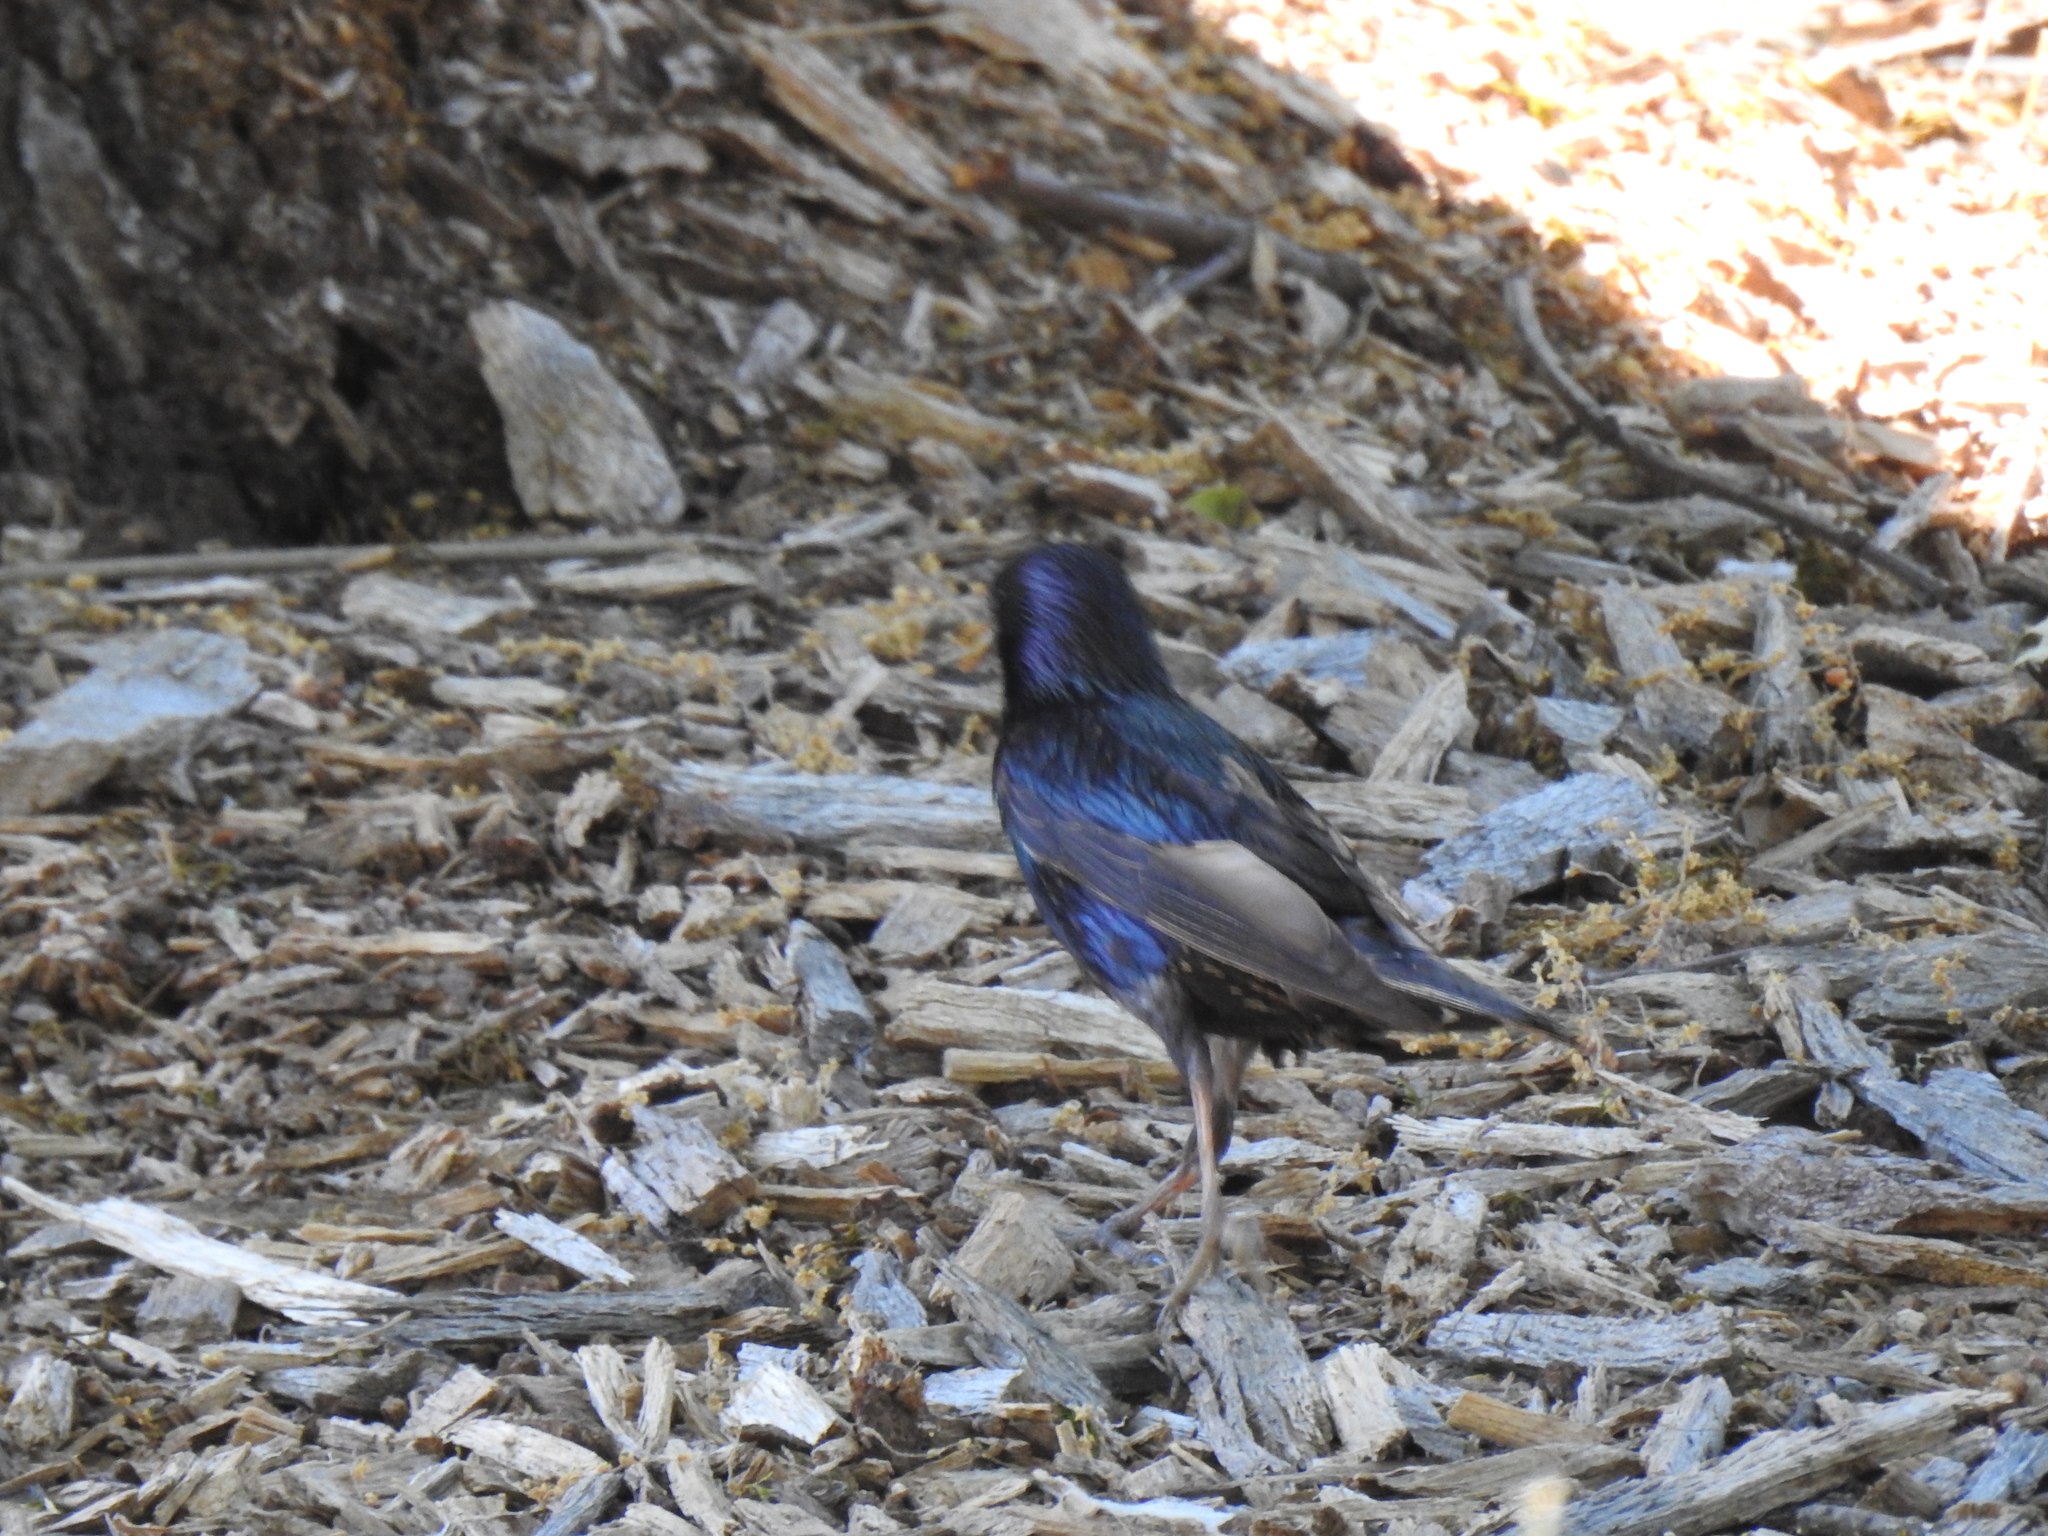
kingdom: Animalia
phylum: Chordata
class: Aves
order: Passeriformes
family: Sturnidae
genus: Sturnus
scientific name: Sturnus vulgaris
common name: Common starling
